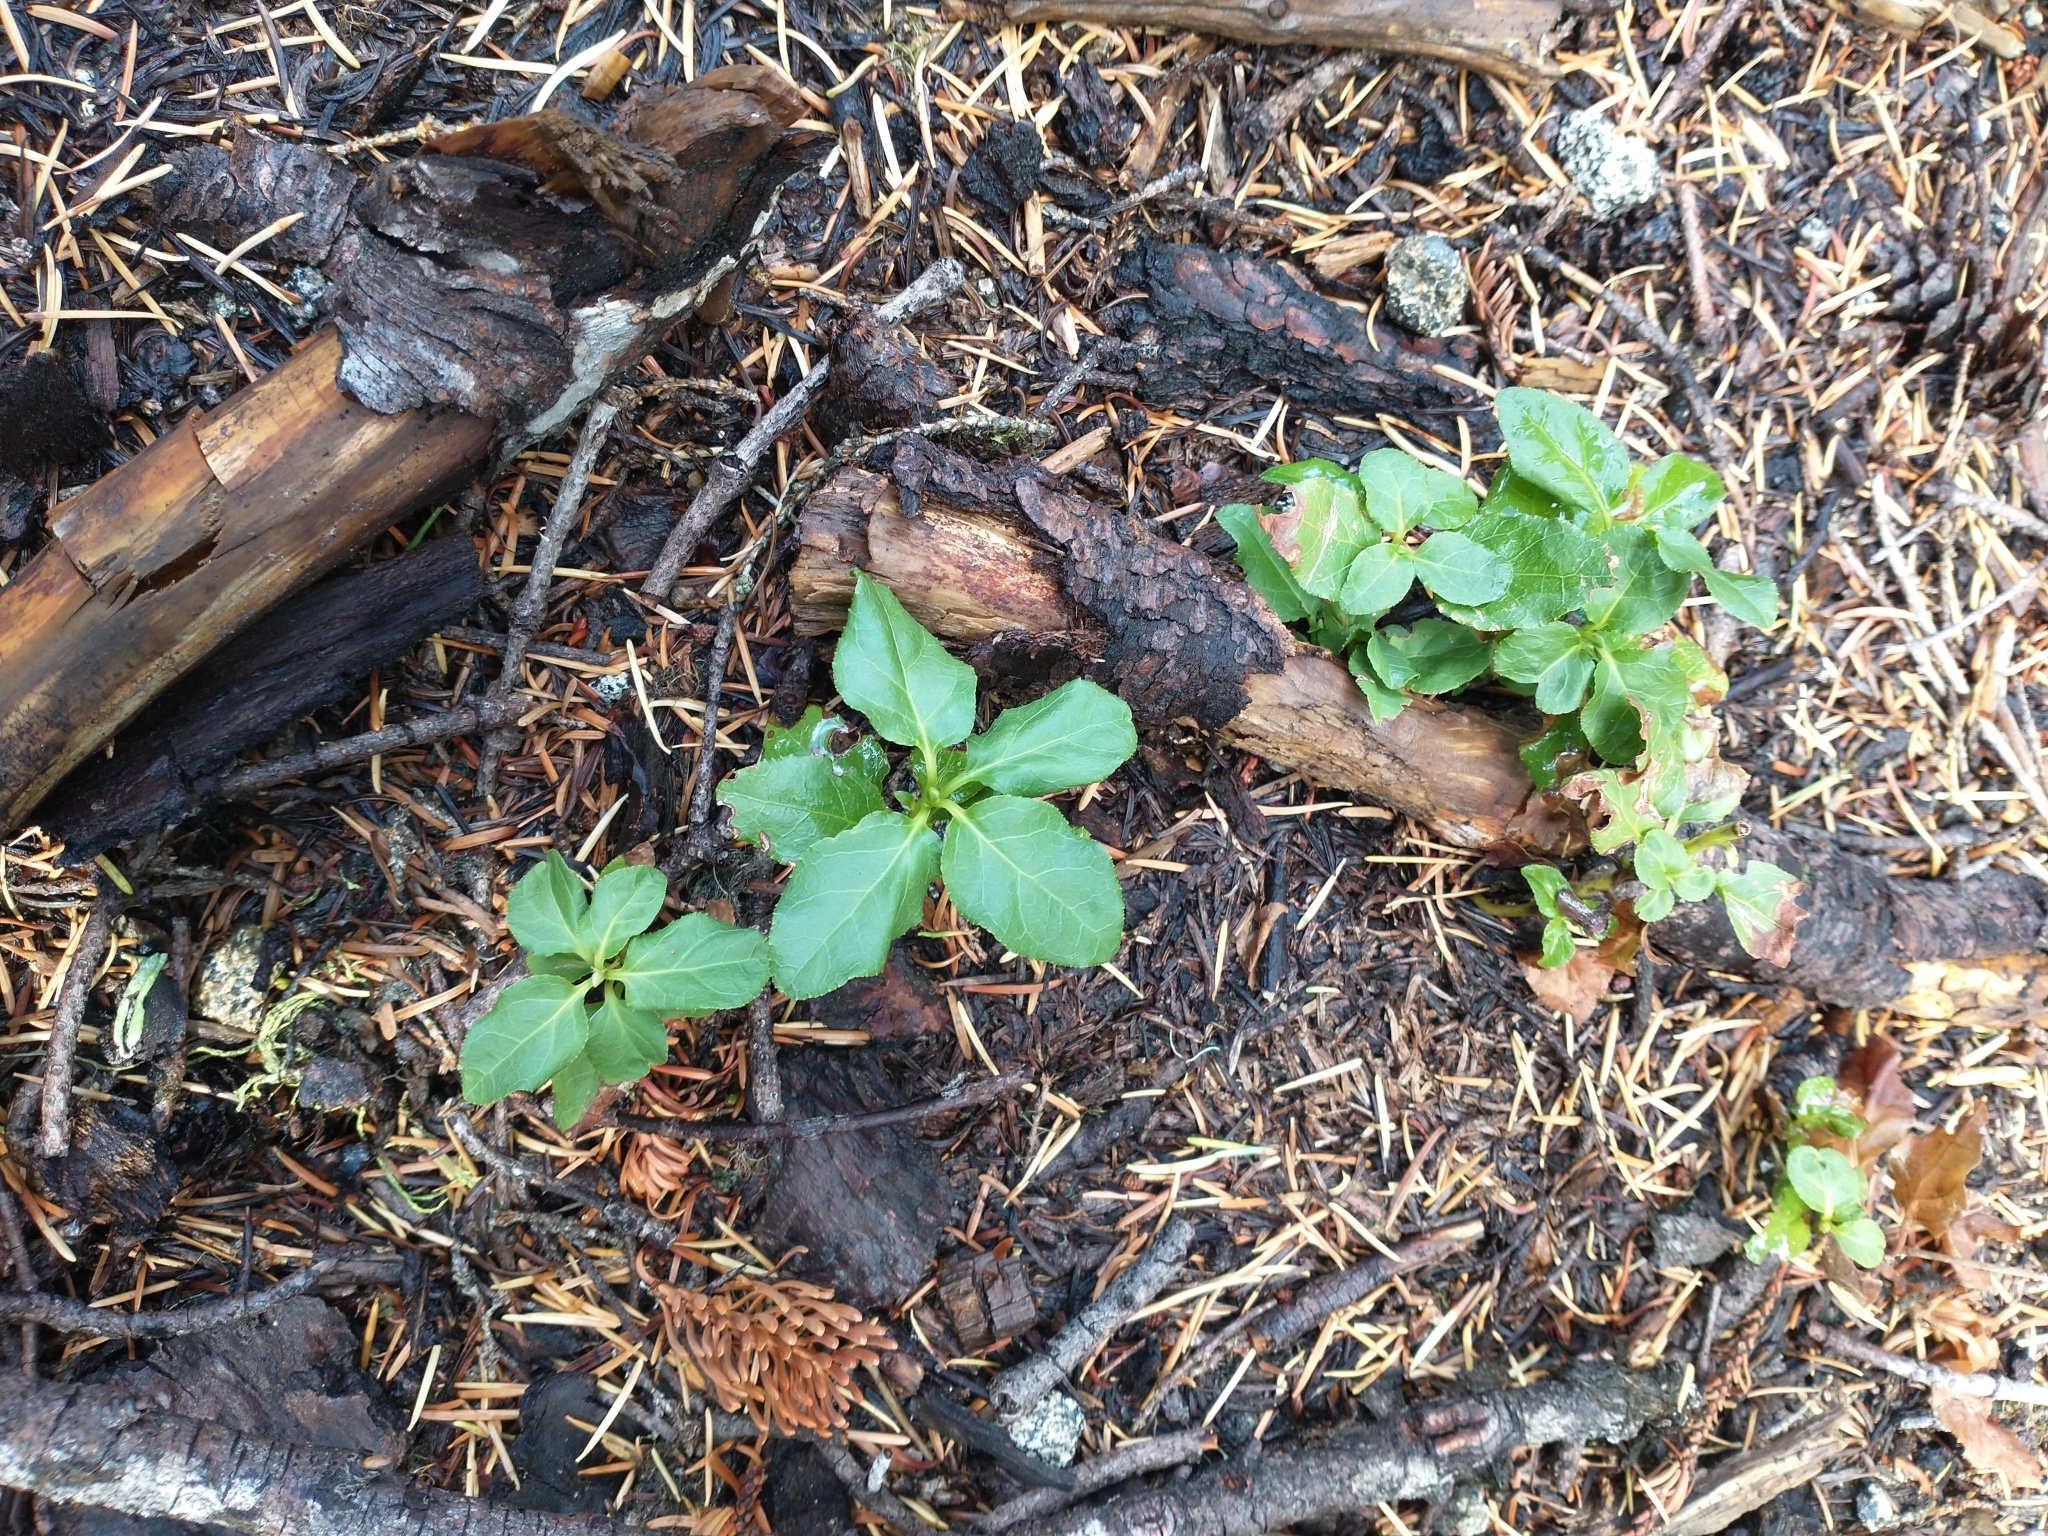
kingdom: Plantae
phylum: Tracheophyta
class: Magnoliopsida
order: Ericales
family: Ericaceae
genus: Orthilia
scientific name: Orthilia secunda
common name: One-sided orthilia
